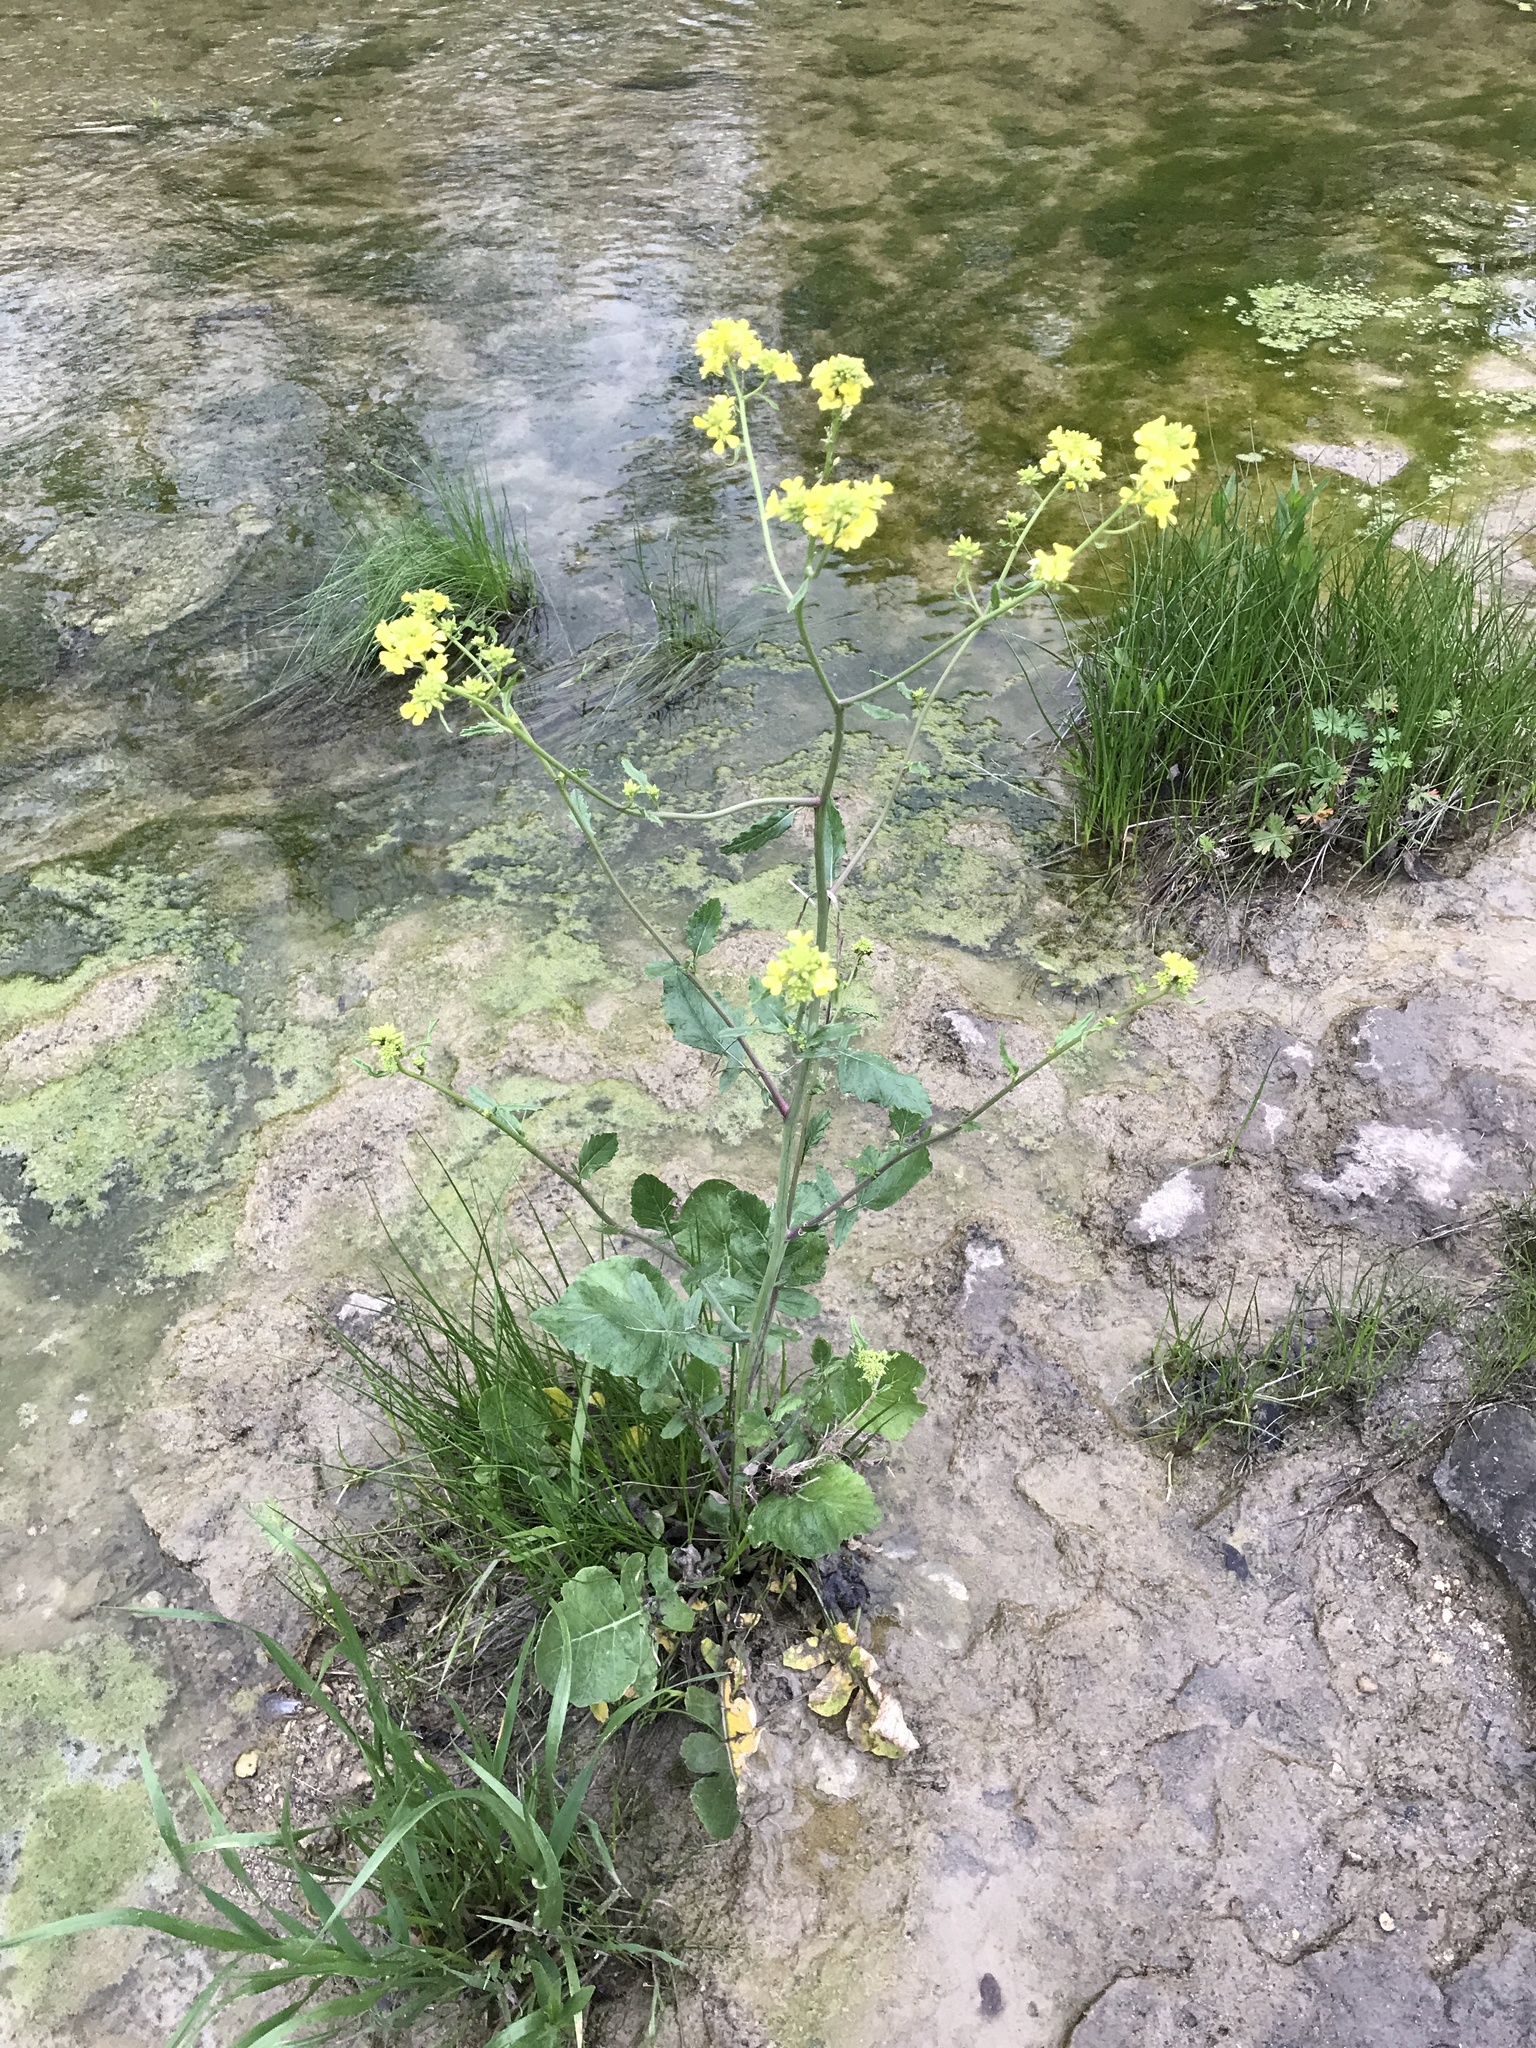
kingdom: Plantae
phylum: Tracheophyta
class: Magnoliopsida
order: Brassicales
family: Brassicaceae
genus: Rapistrum
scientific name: Rapistrum rugosum
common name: Annual bastardcabbage
